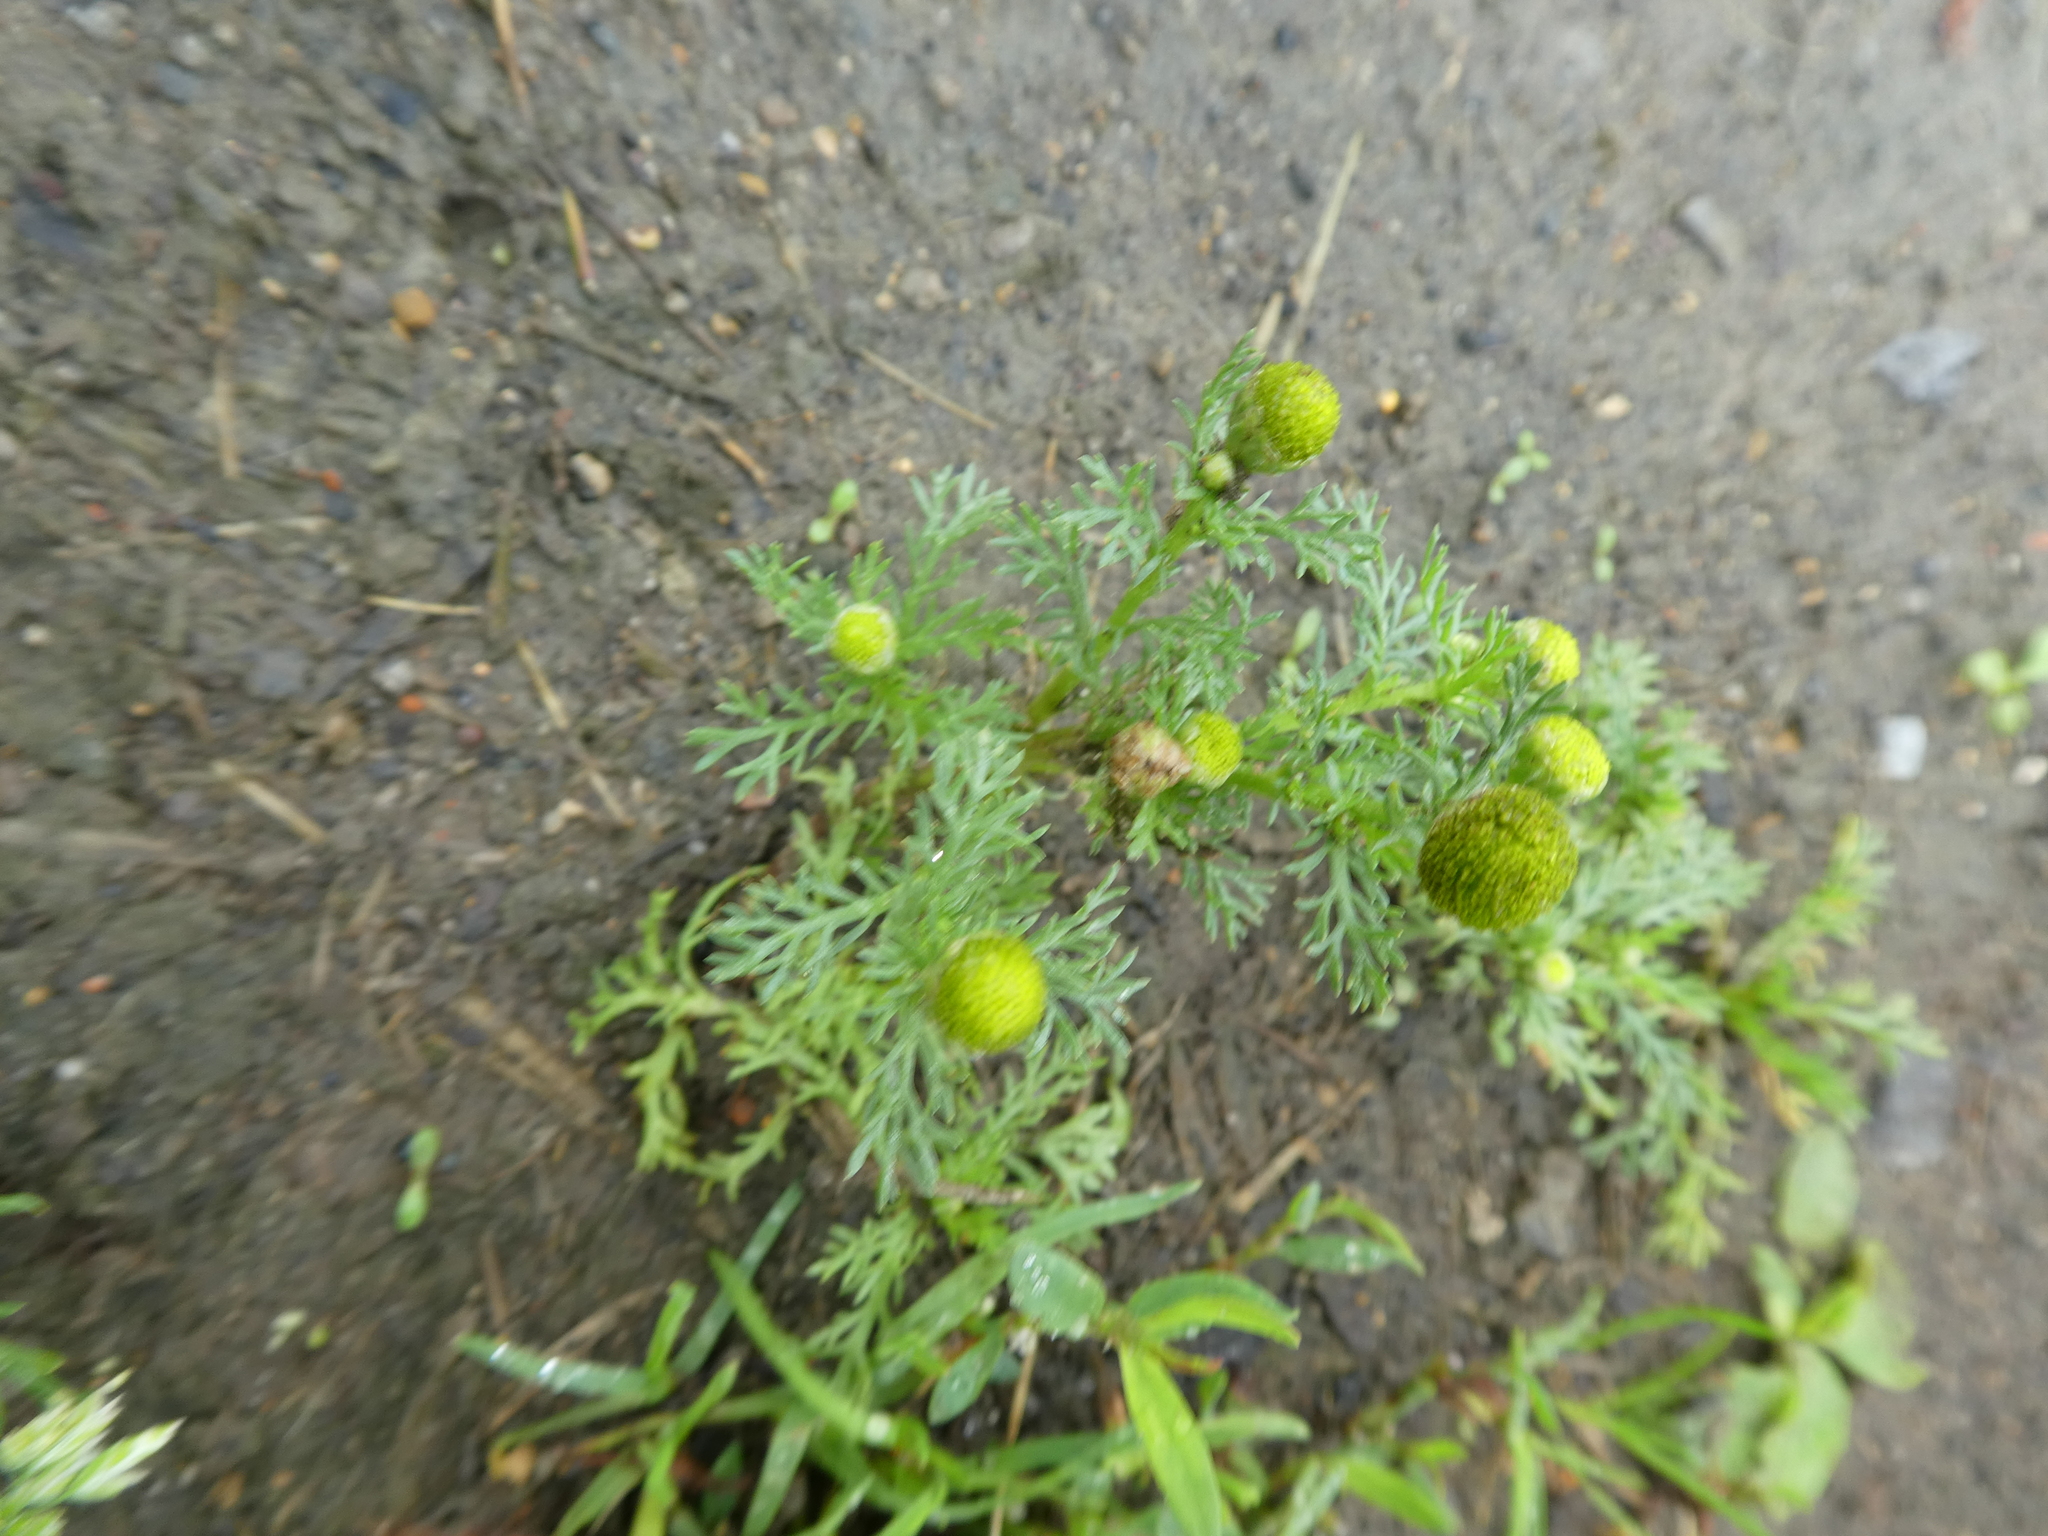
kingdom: Plantae
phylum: Tracheophyta
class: Magnoliopsida
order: Asterales
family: Asteraceae
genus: Matricaria
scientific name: Matricaria discoidea
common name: Disc mayweed
